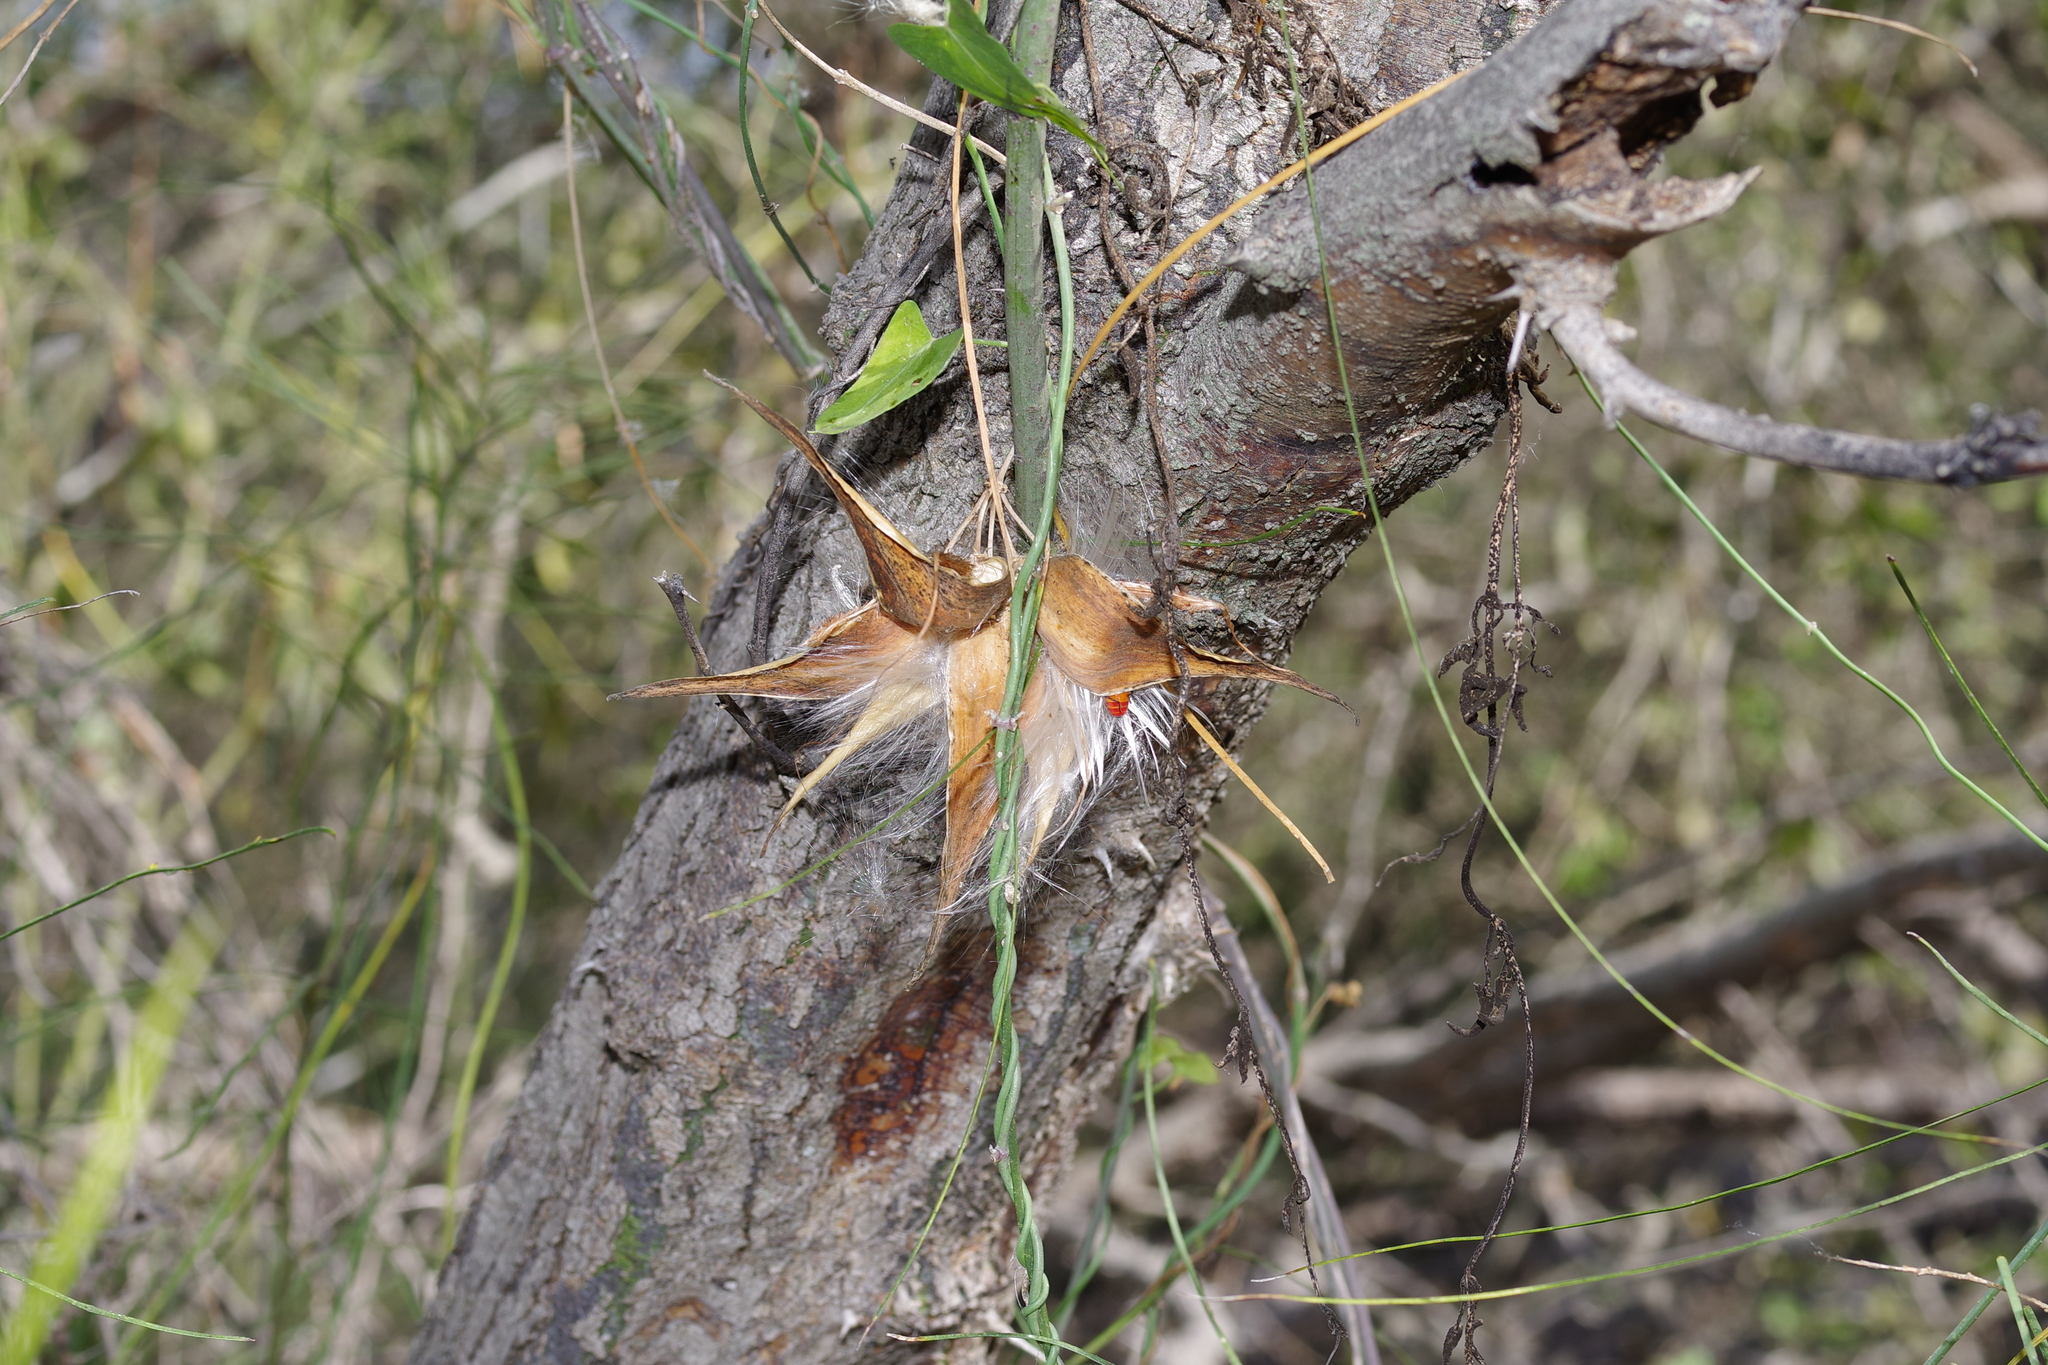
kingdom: Plantae
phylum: Tracheophyta
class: Magnoliopsida
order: Gentianales
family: Apocynaceae
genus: Funastrum
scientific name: Funastrum cynanchoides
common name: Climbing-milkweed
